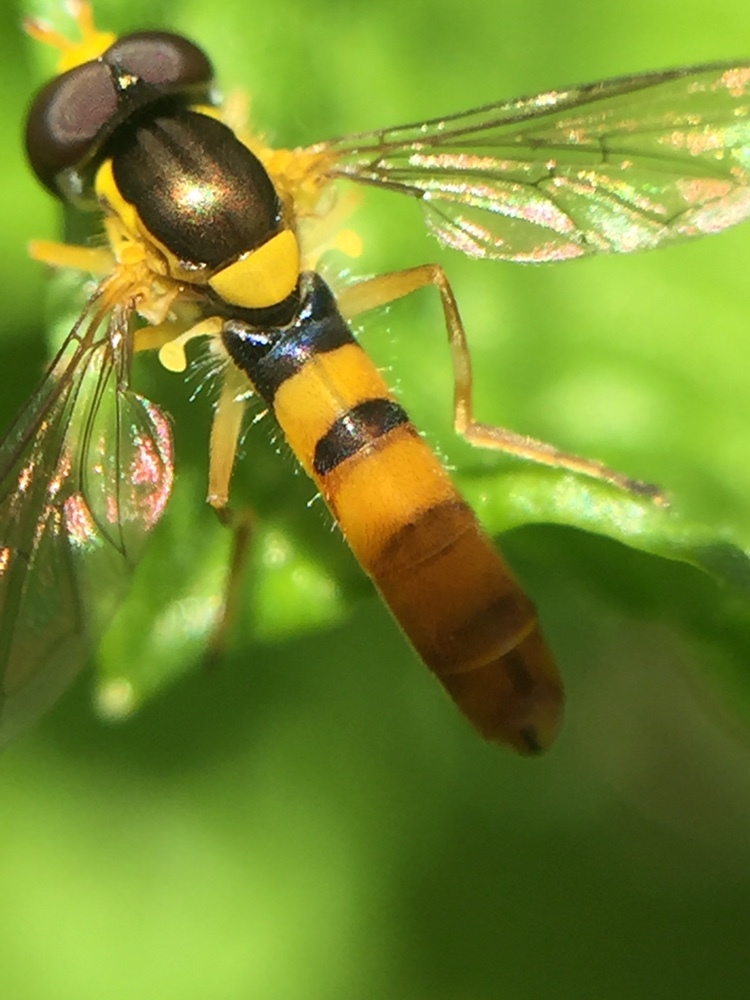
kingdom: Animalia
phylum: Arthropoda
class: Insecta
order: Diptera
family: Syrphidae
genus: Sphaerophoria
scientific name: Sphaerophoria macrogaster
